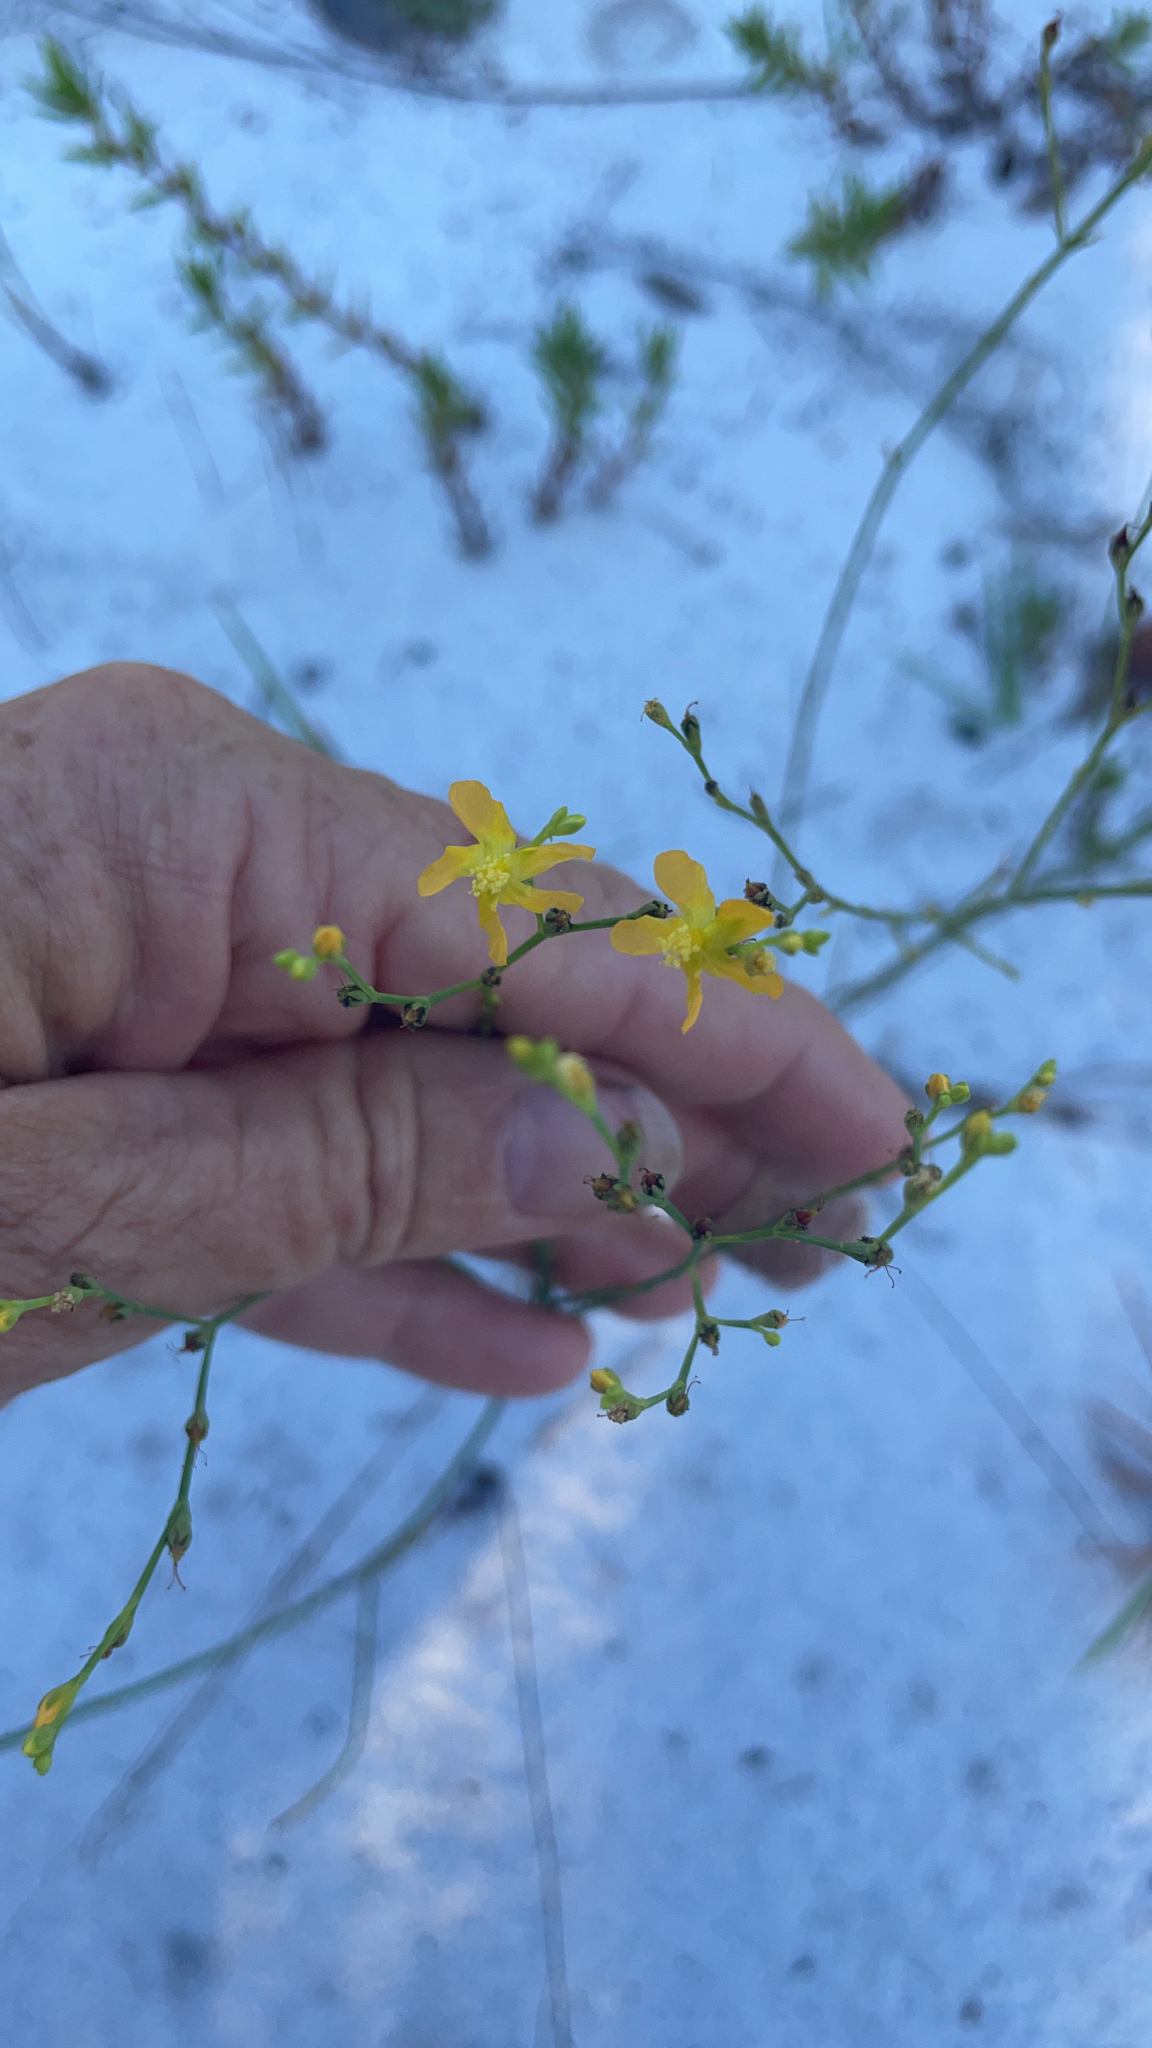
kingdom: Plantae
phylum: Tracheophyta
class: Magnoliopsida
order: Malpighiales
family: Hypericaceae
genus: Hypericum
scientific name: Hypericum cumulicola
